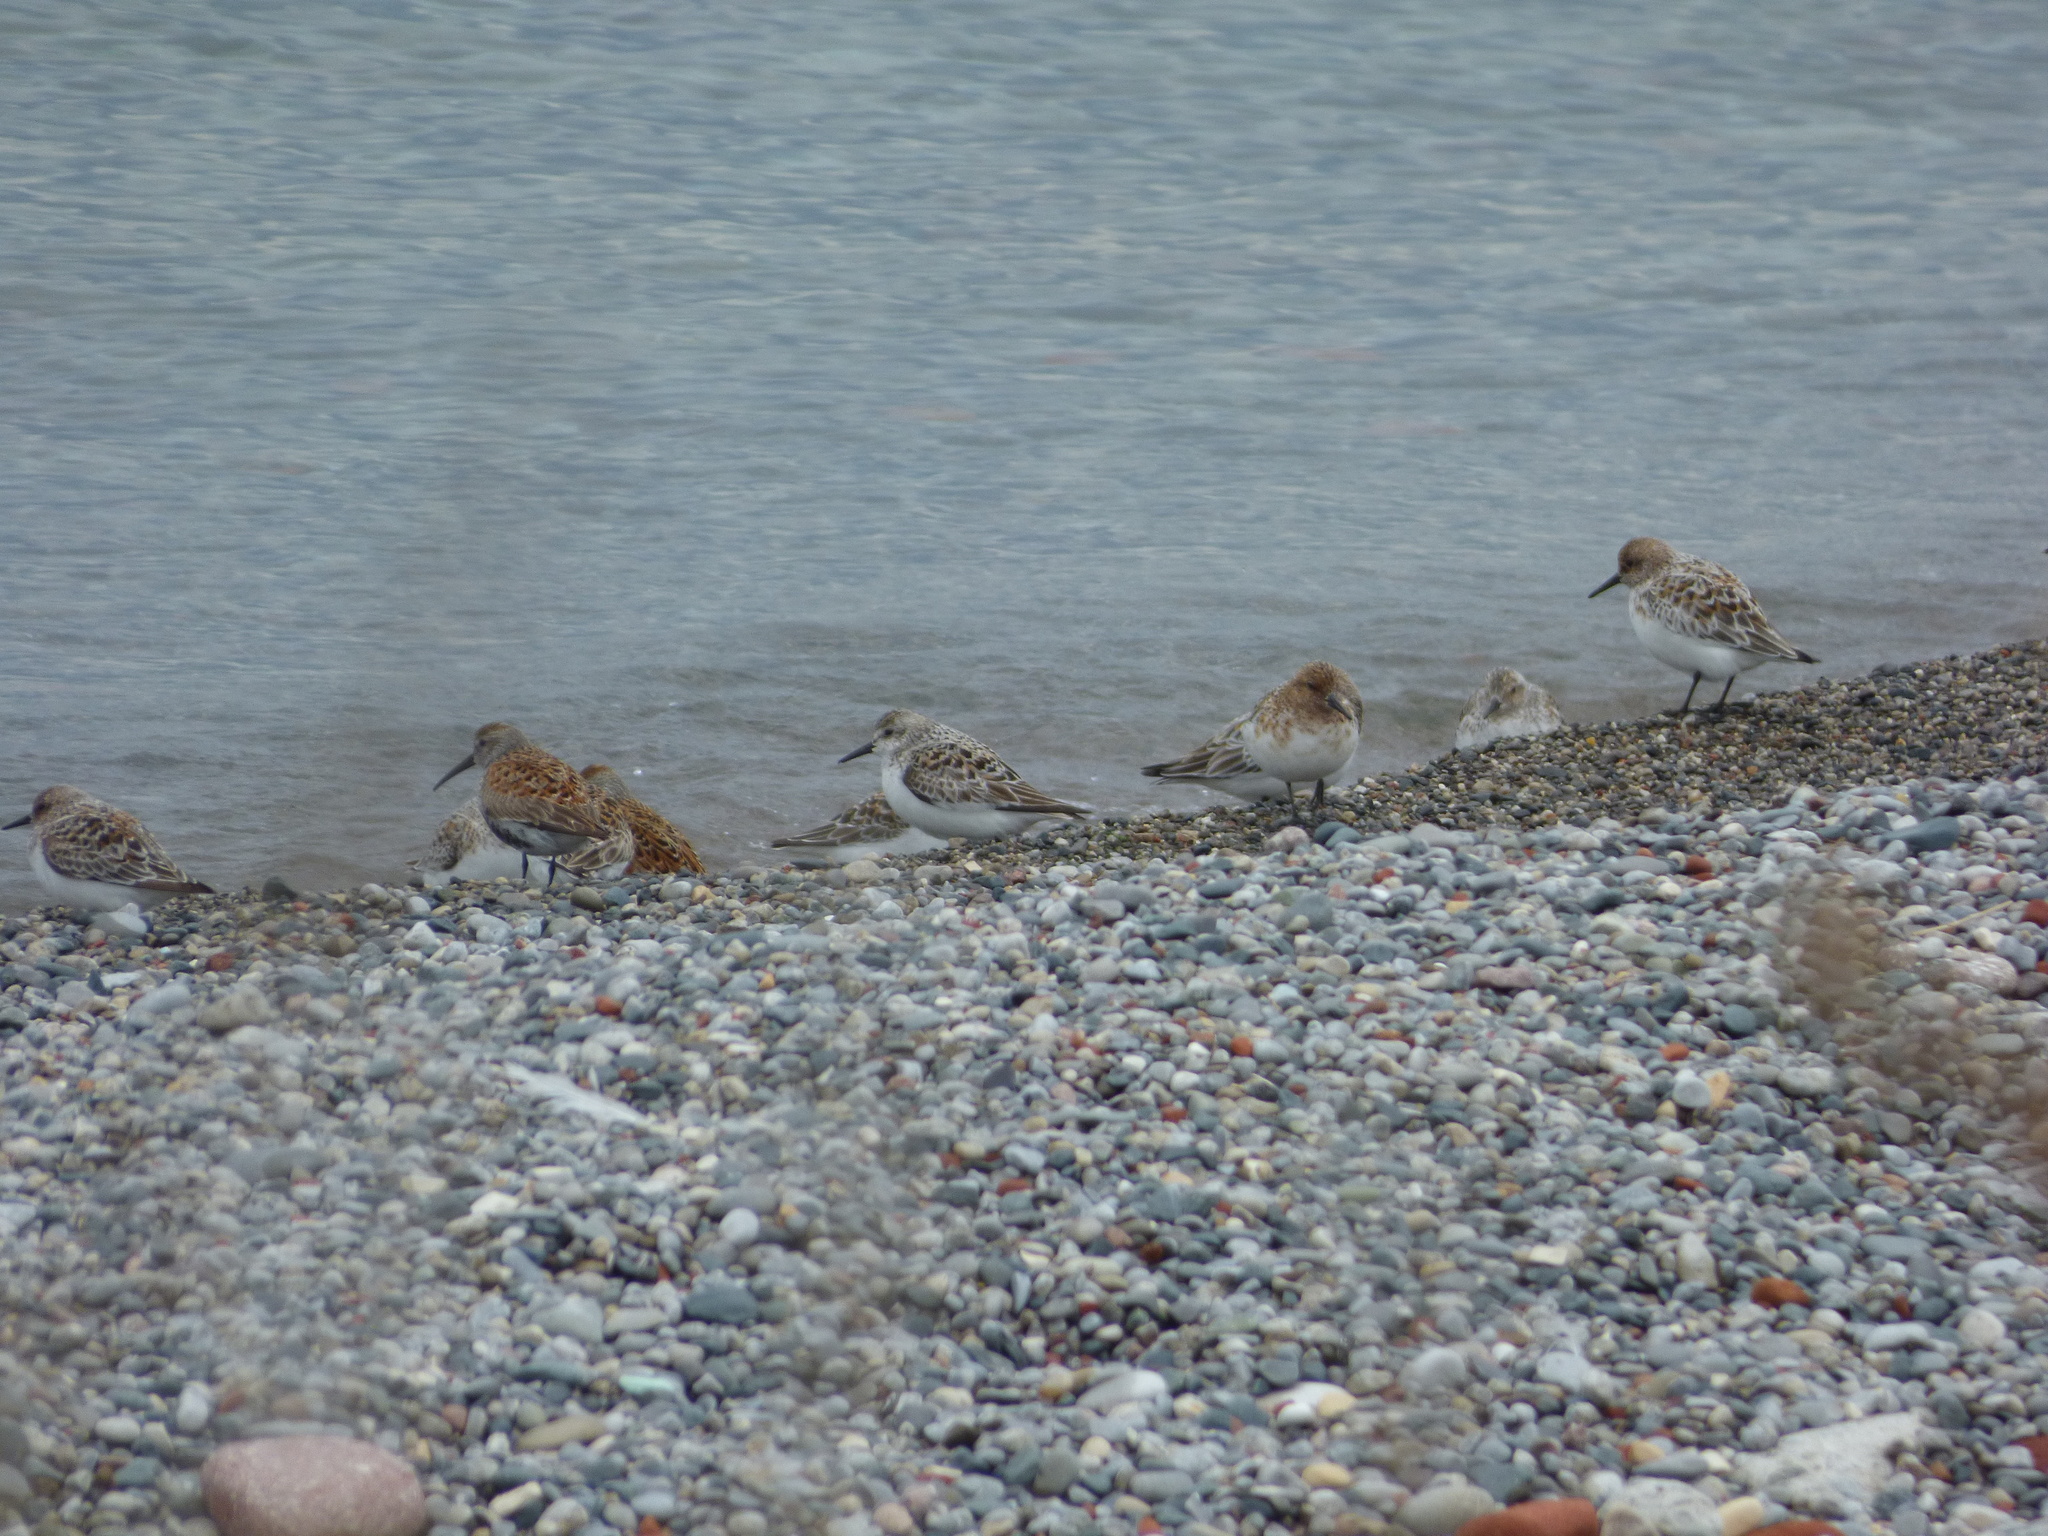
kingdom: Animalia
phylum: Chordata
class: Aves
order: Charadriiformes
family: Scolopacidae
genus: Calidris
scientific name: Calidris alba
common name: Sanderling
